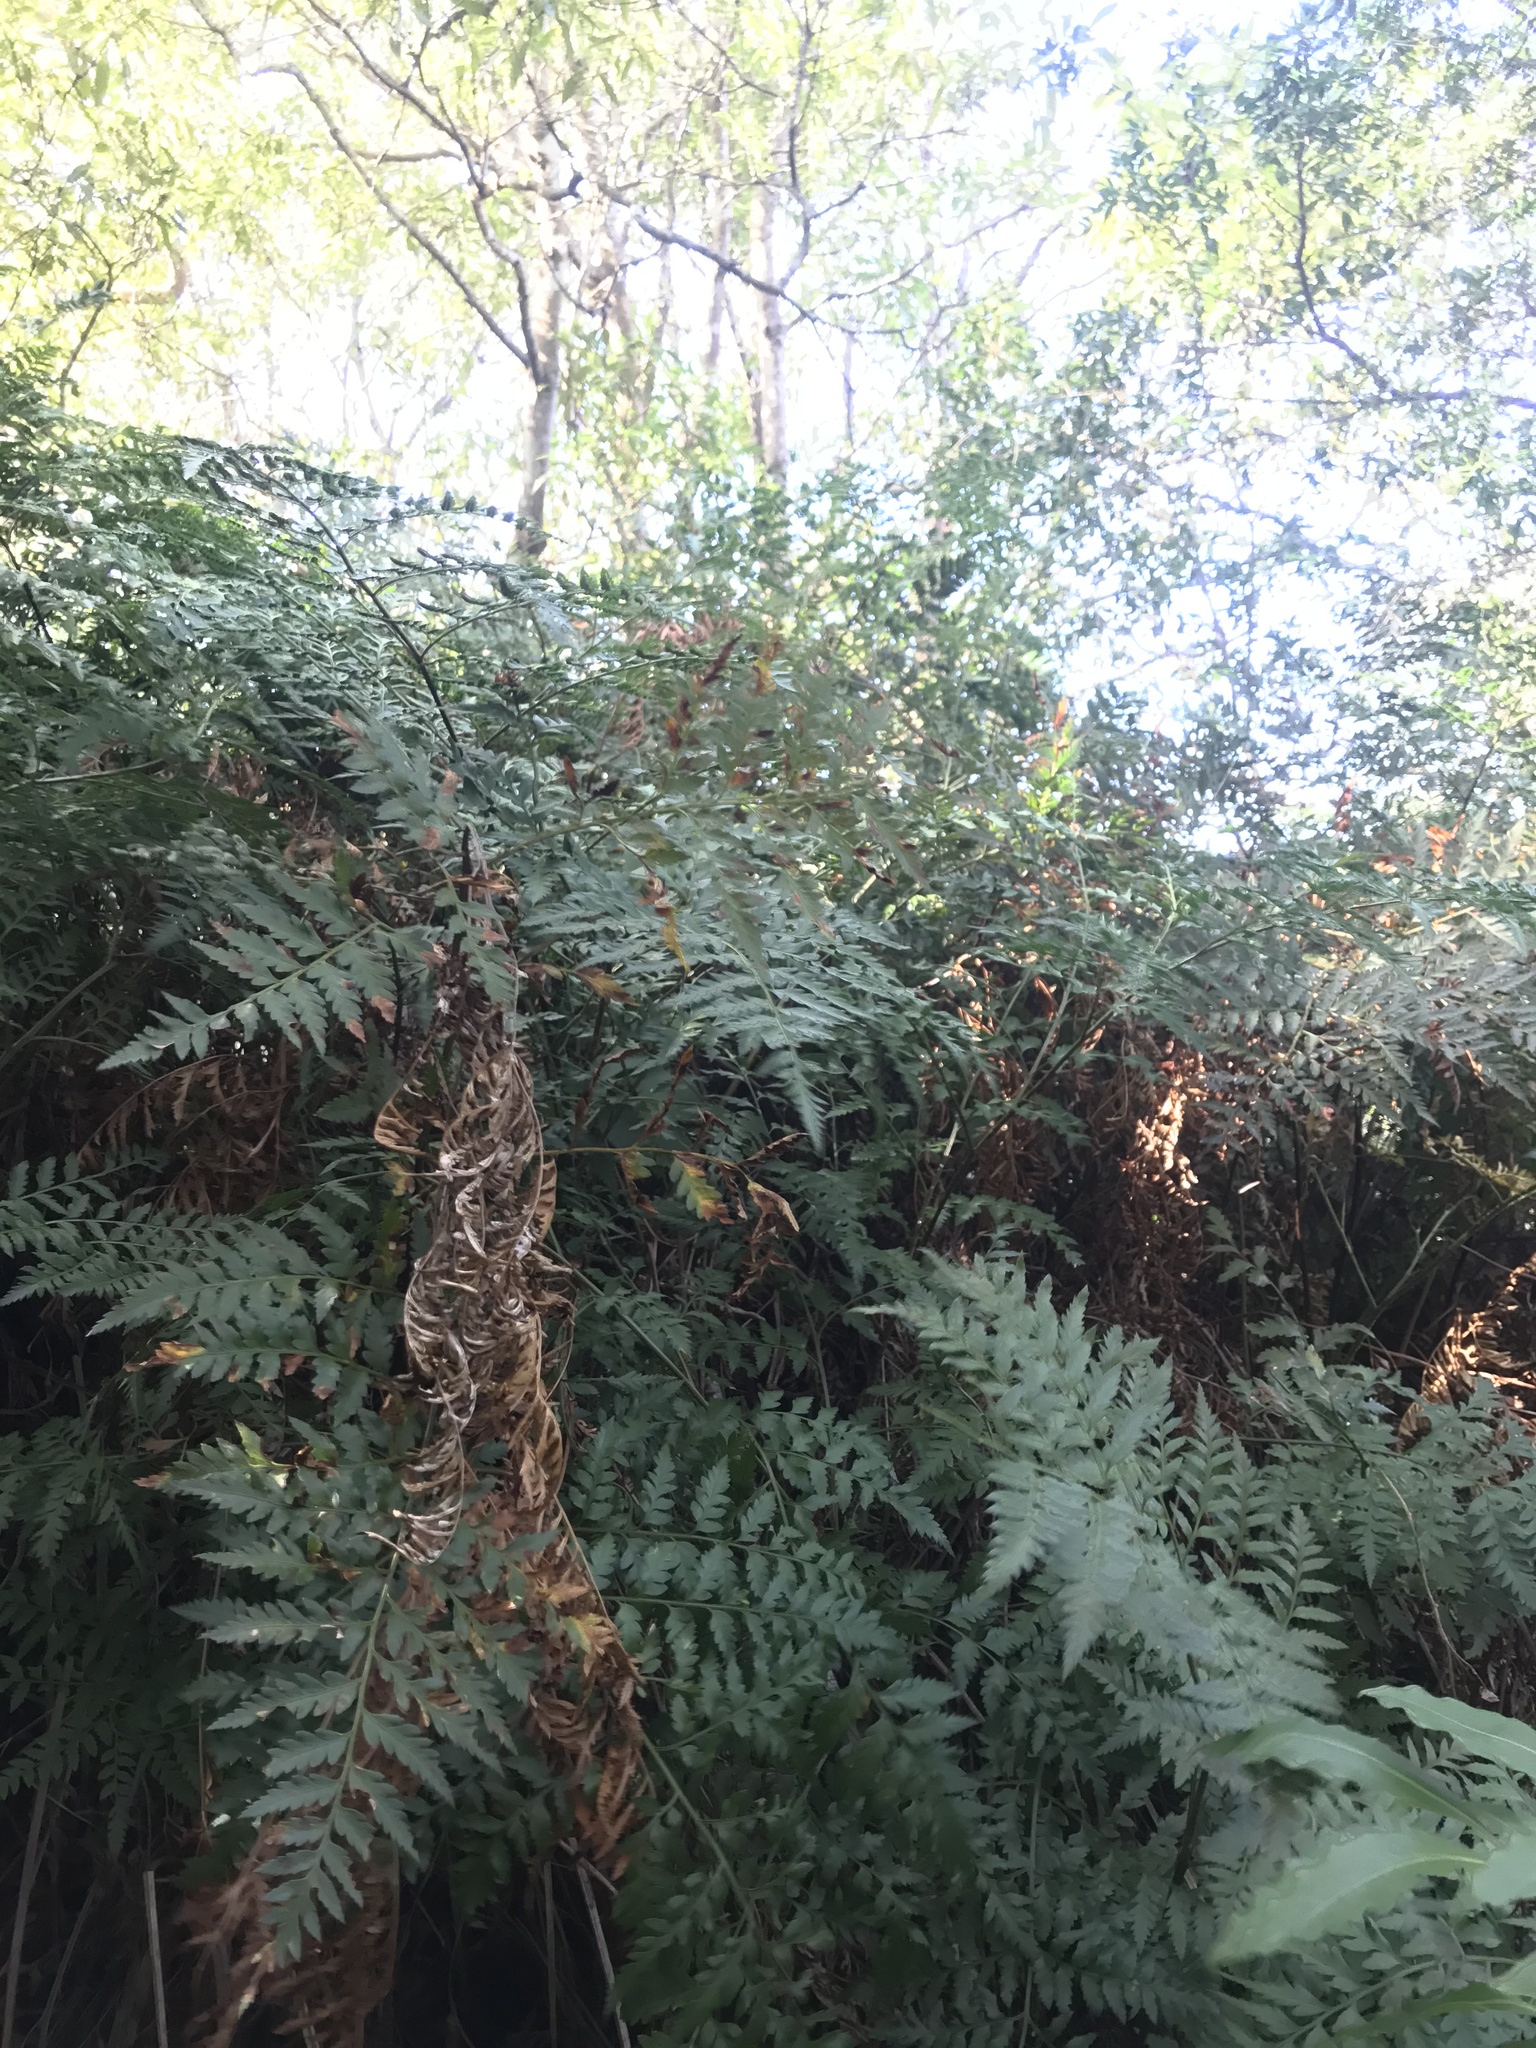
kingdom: Plantae
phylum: Tracheophyta
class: Polypodiopsida
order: Polypodiales
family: Dryopteridaceae
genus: Rumohra
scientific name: Rumohra adiantiformis
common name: Leather fern
